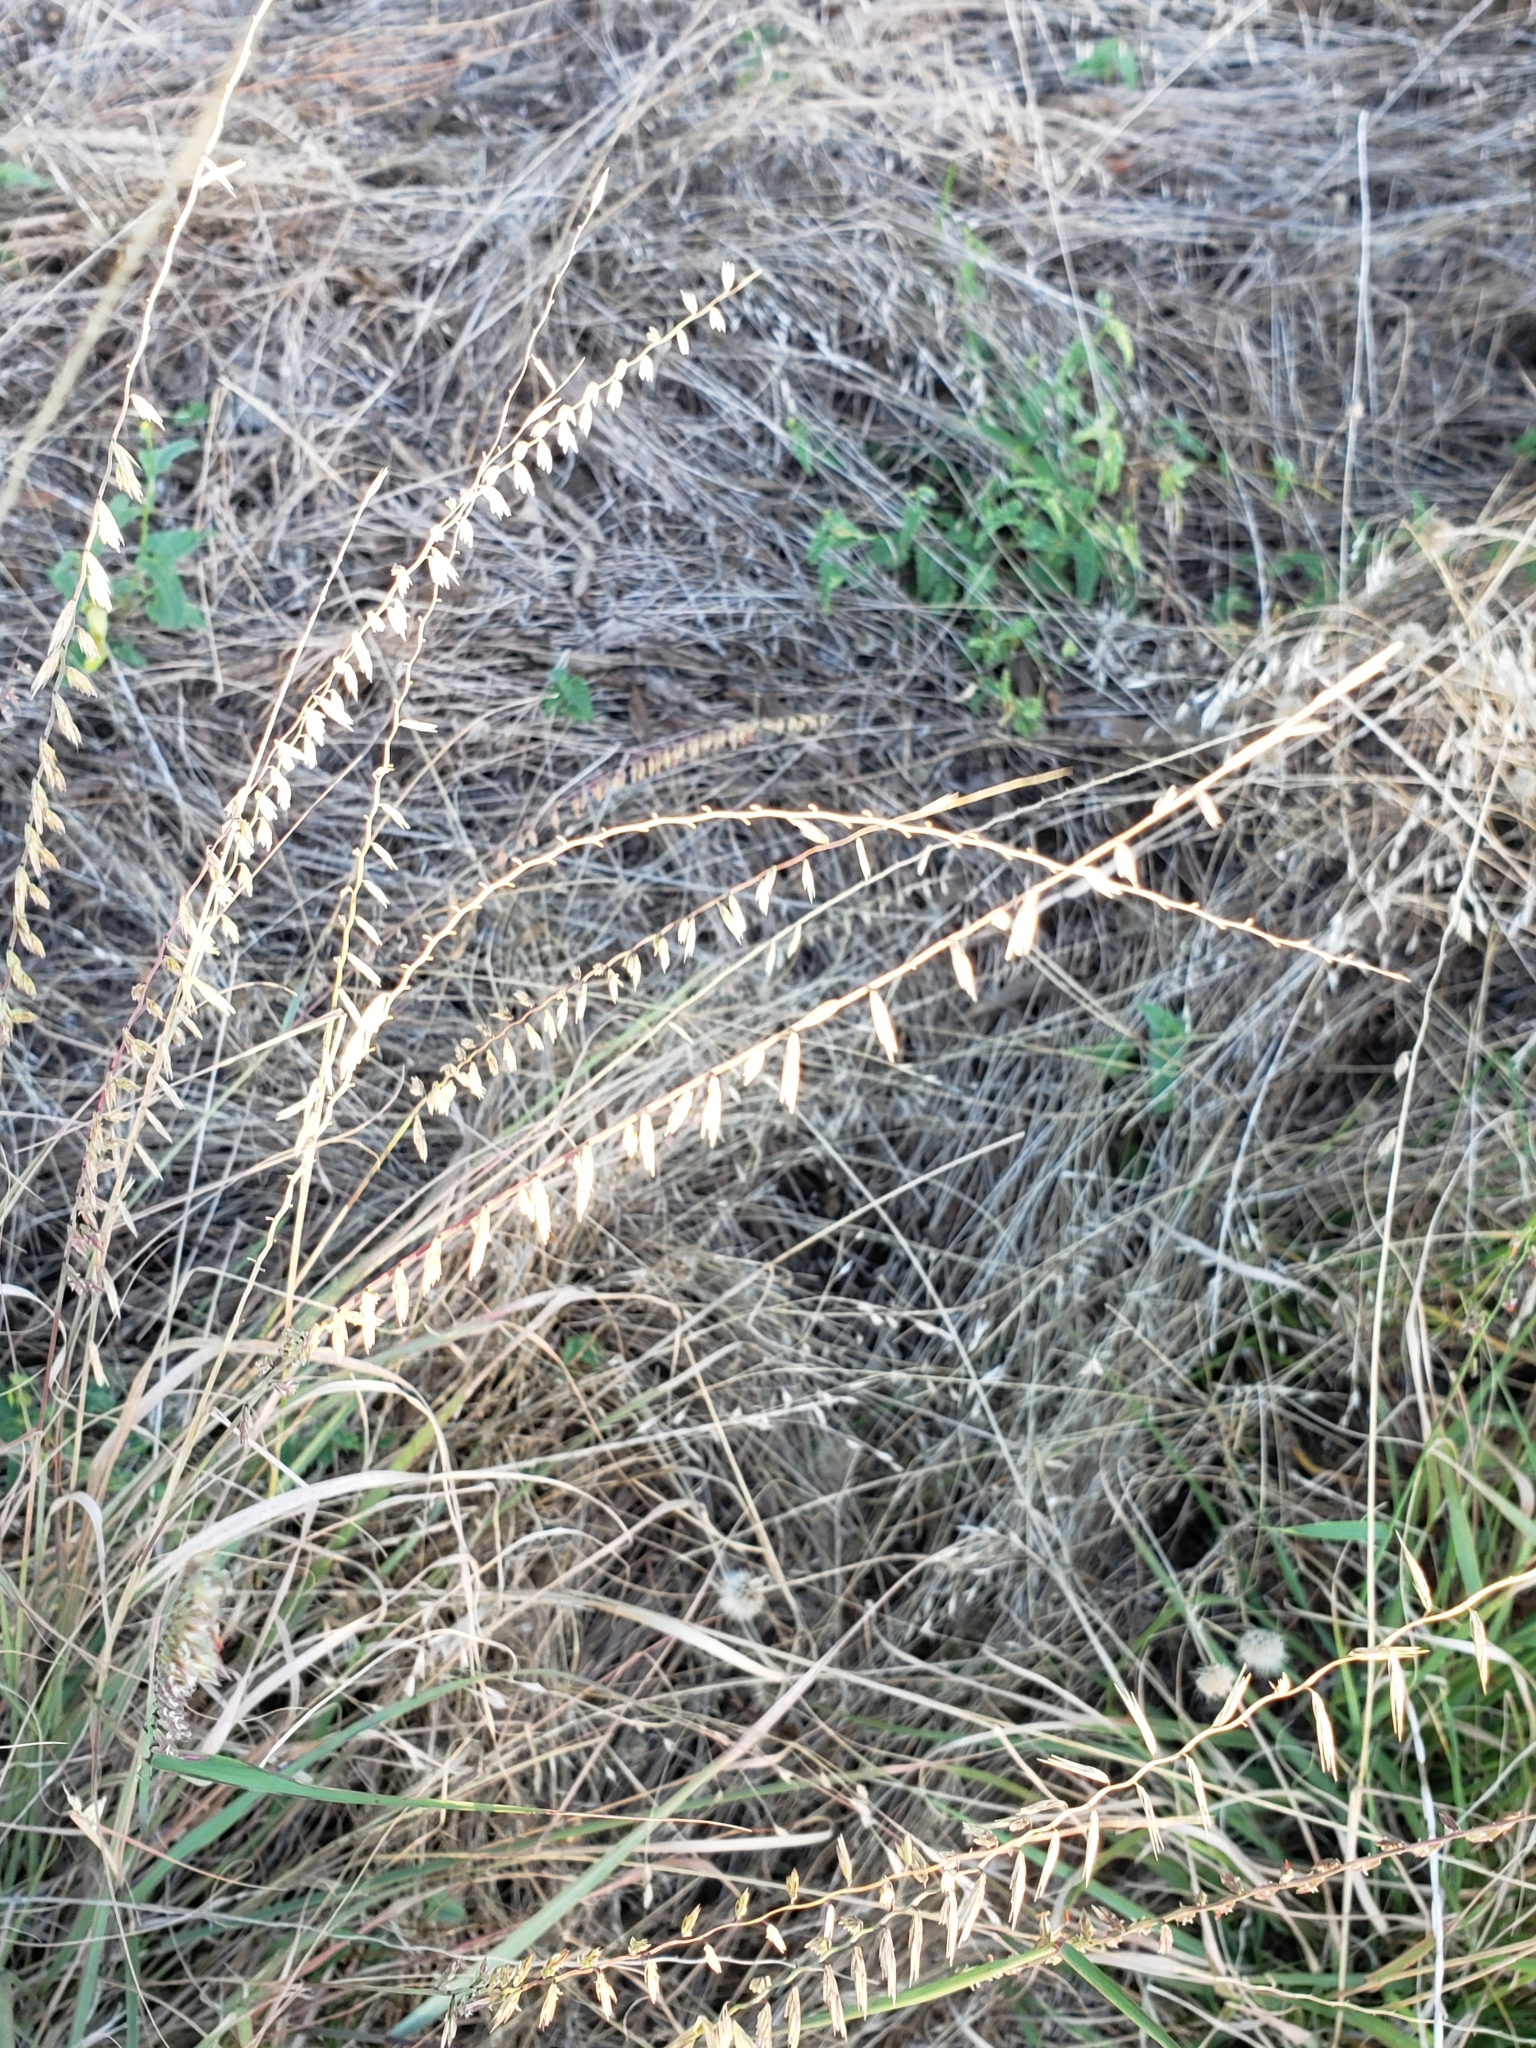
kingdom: Plantae
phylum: Tracheophyta
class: Liliopsida
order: Poales
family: Poaceae
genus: Bouteloua
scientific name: Bouteloua curtipendula
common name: Side-oats grama
